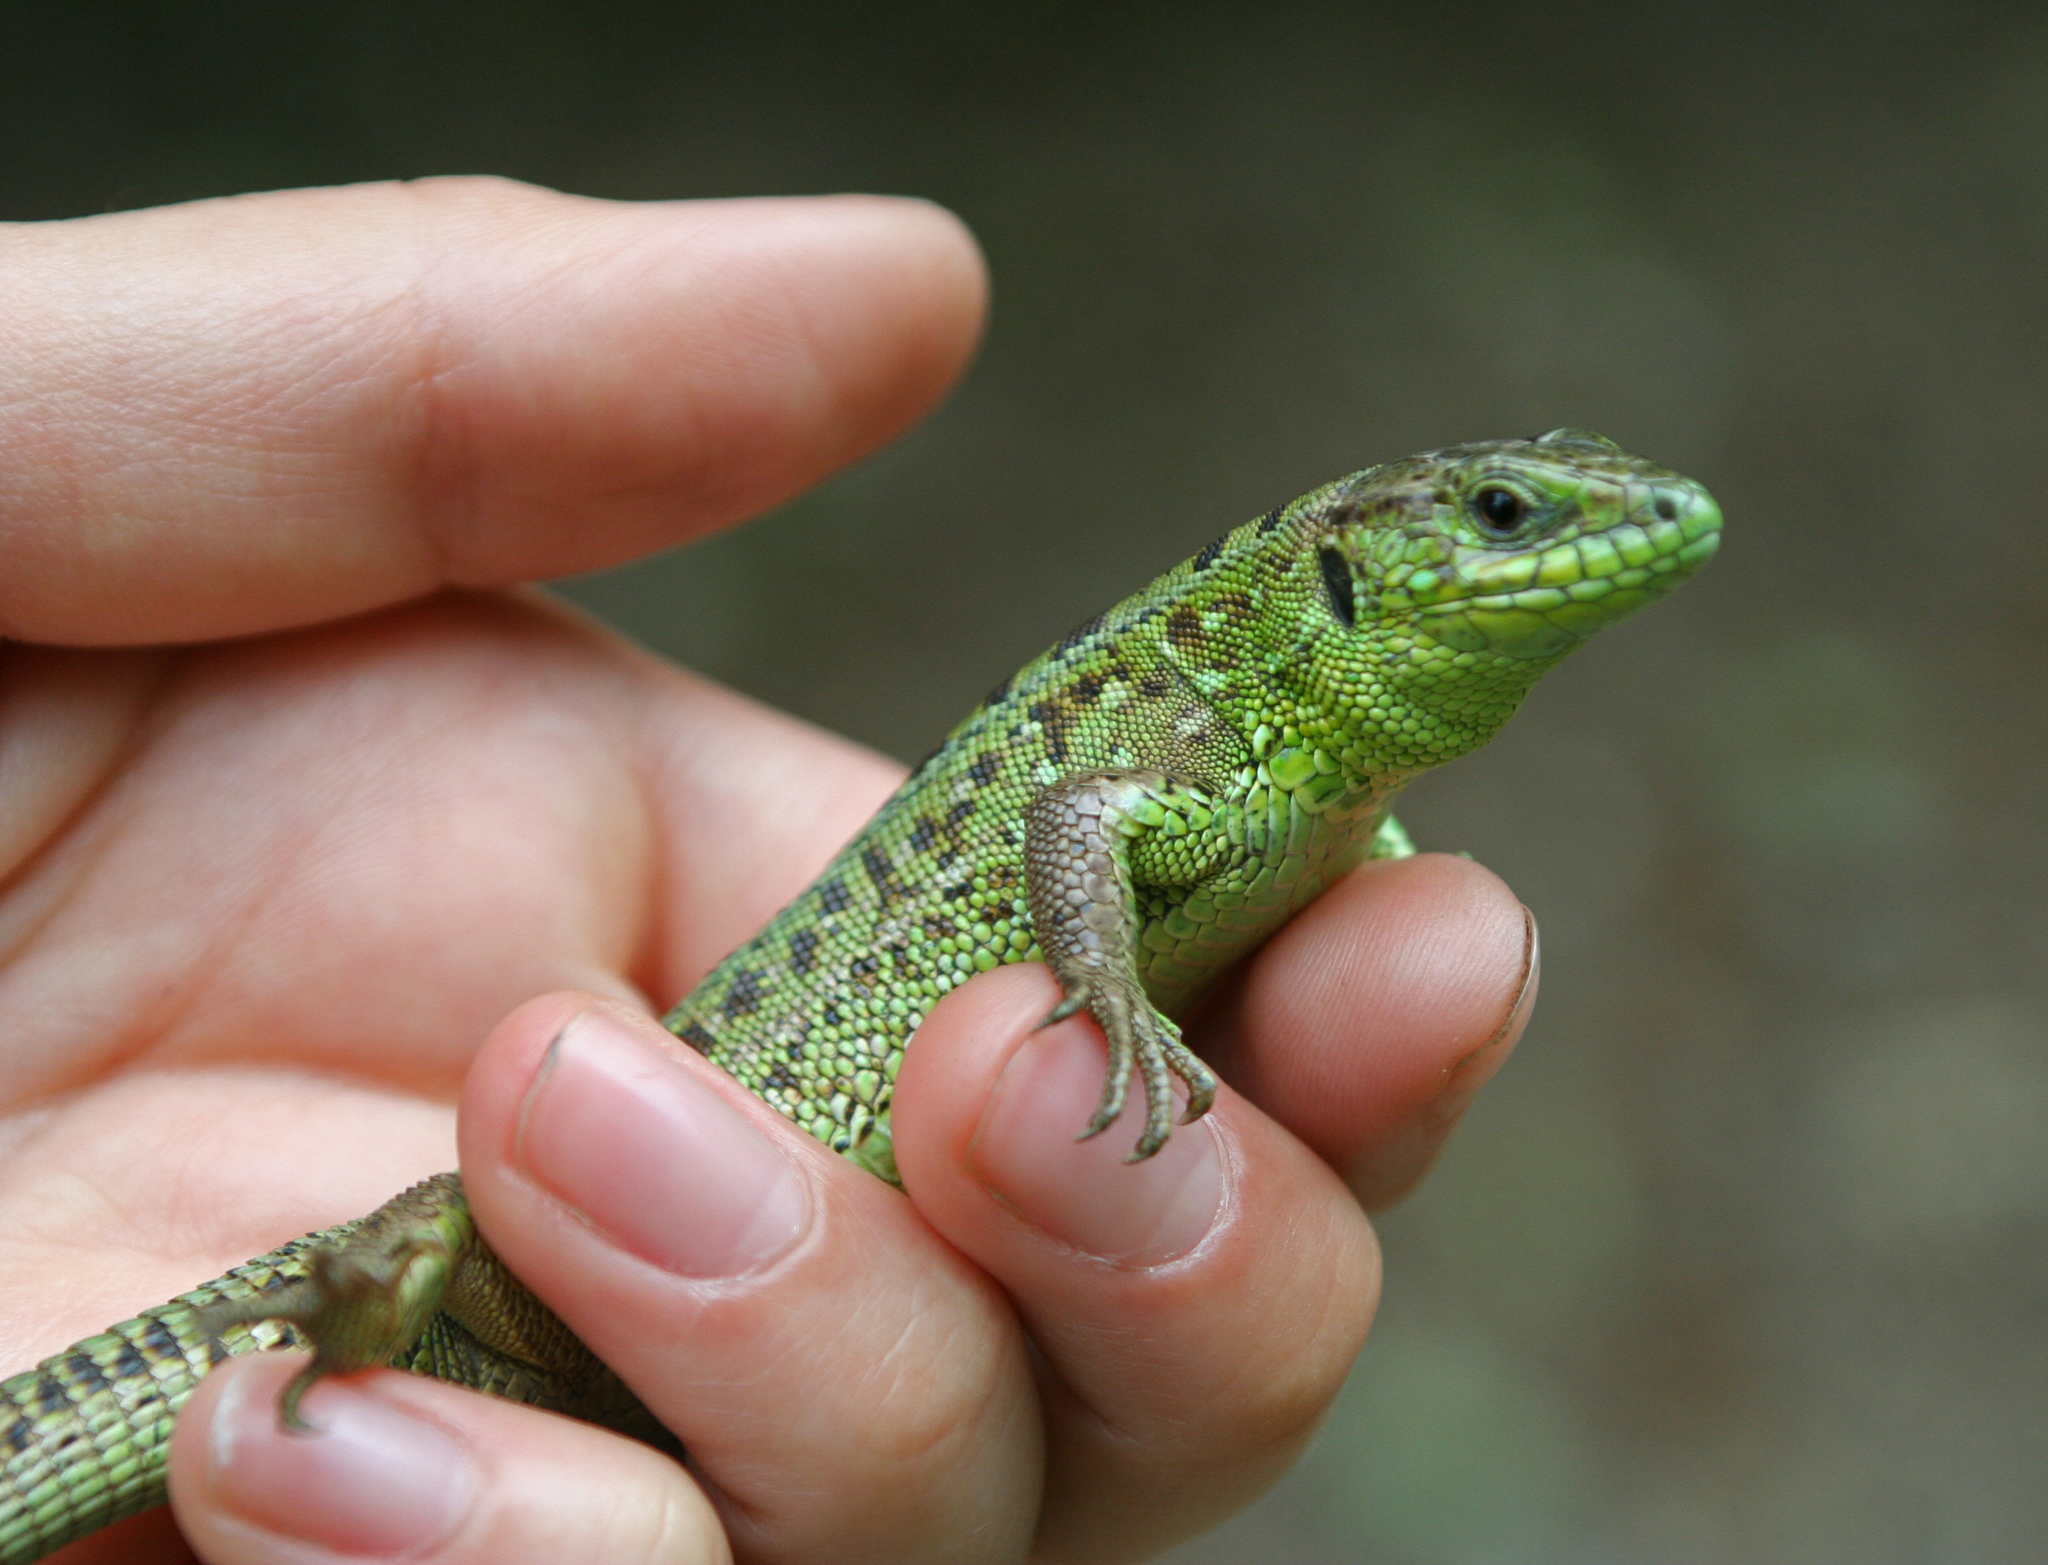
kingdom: Animalia
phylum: Chordata
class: Squamata
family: Lacertidae
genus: Lacerta
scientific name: Lacerta agilis
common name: Sand lizard
